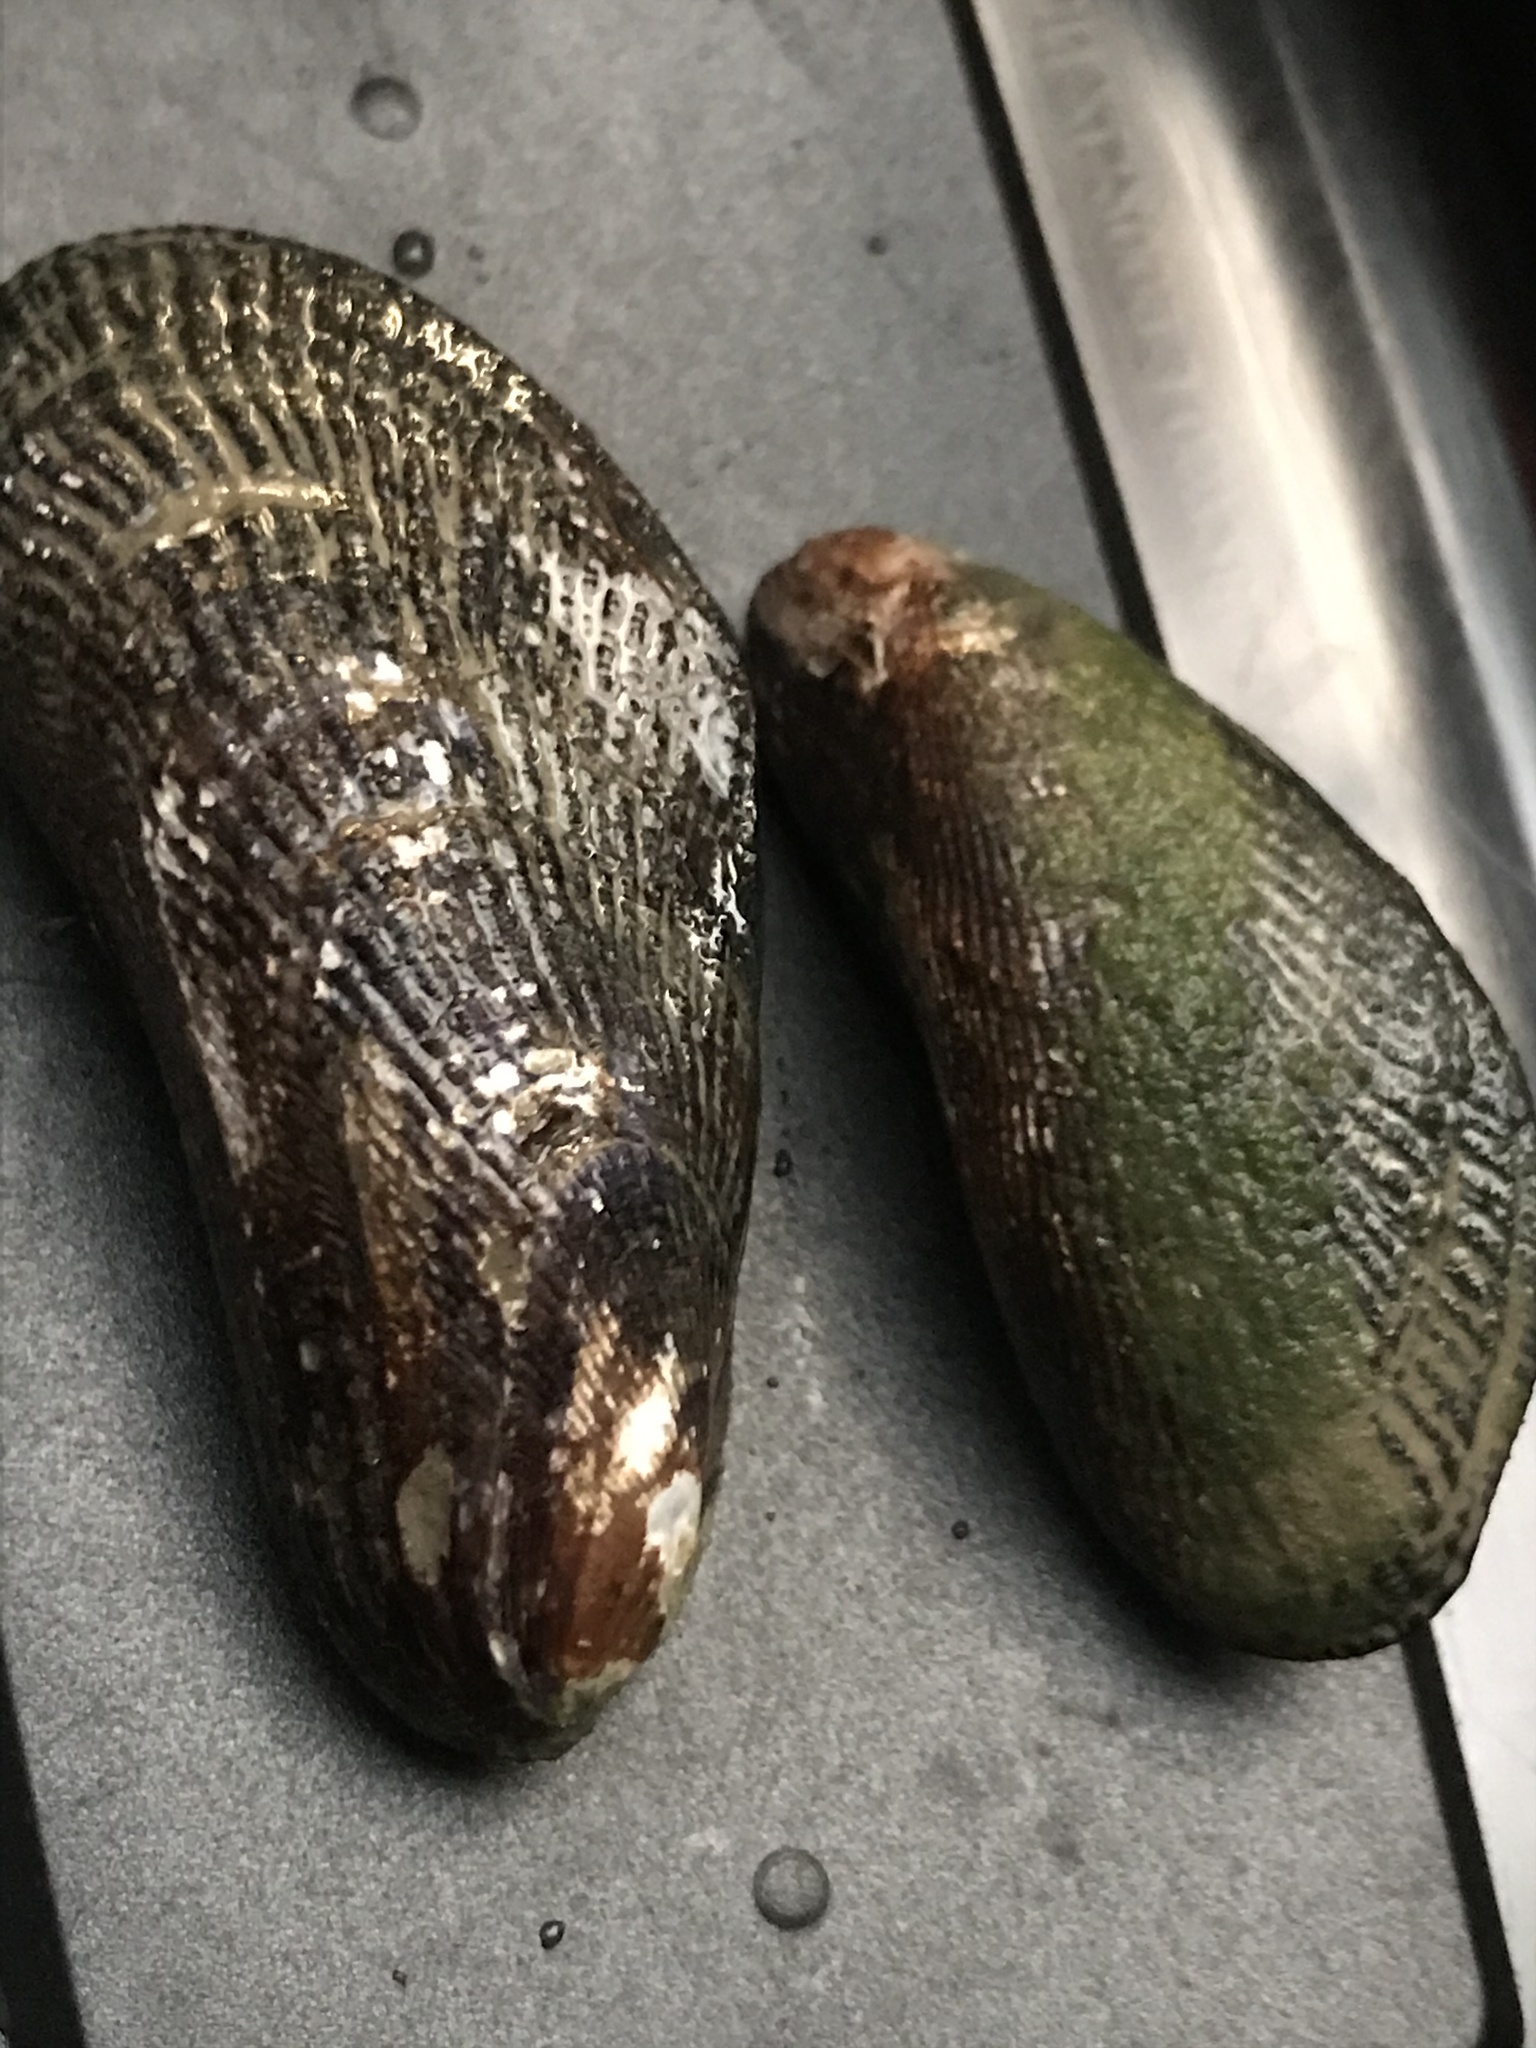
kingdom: Animalia
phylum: Mollusca
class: Bivalvia
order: Mytilida
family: Mytilidae
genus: Geukensia
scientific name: Geukensia demissa
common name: Ribbed mussel
